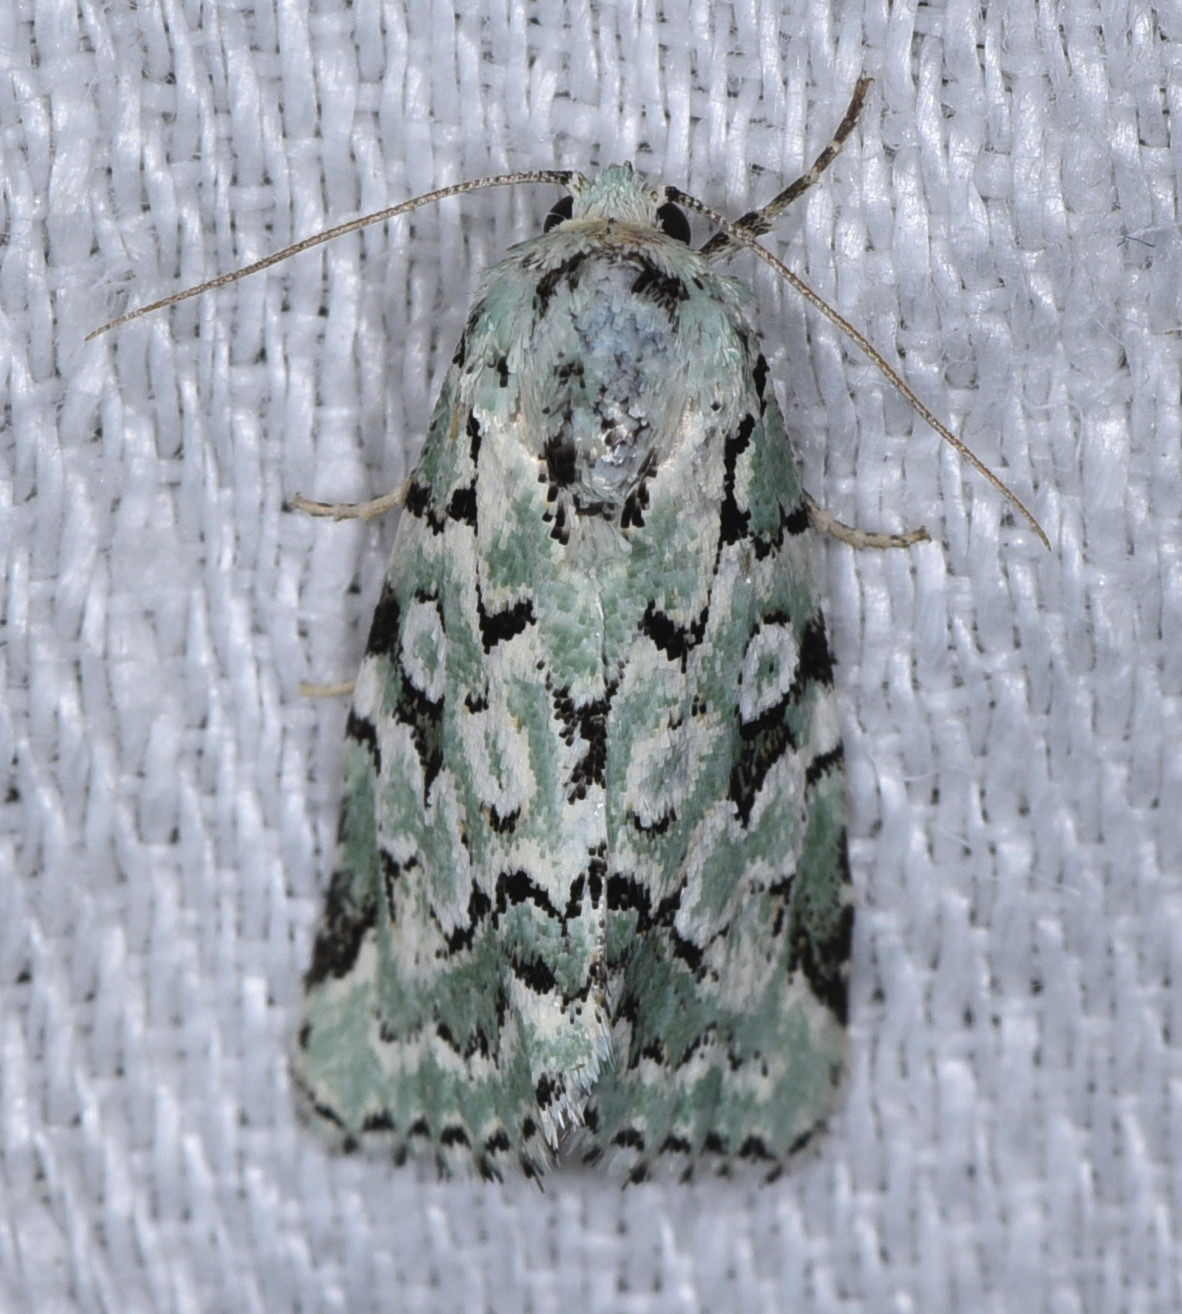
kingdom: Animalia
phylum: Arthropoda
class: Insecta
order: Lepidoptera
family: Noctuidae
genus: Bryolymnia
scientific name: Bryolymnia viridata
